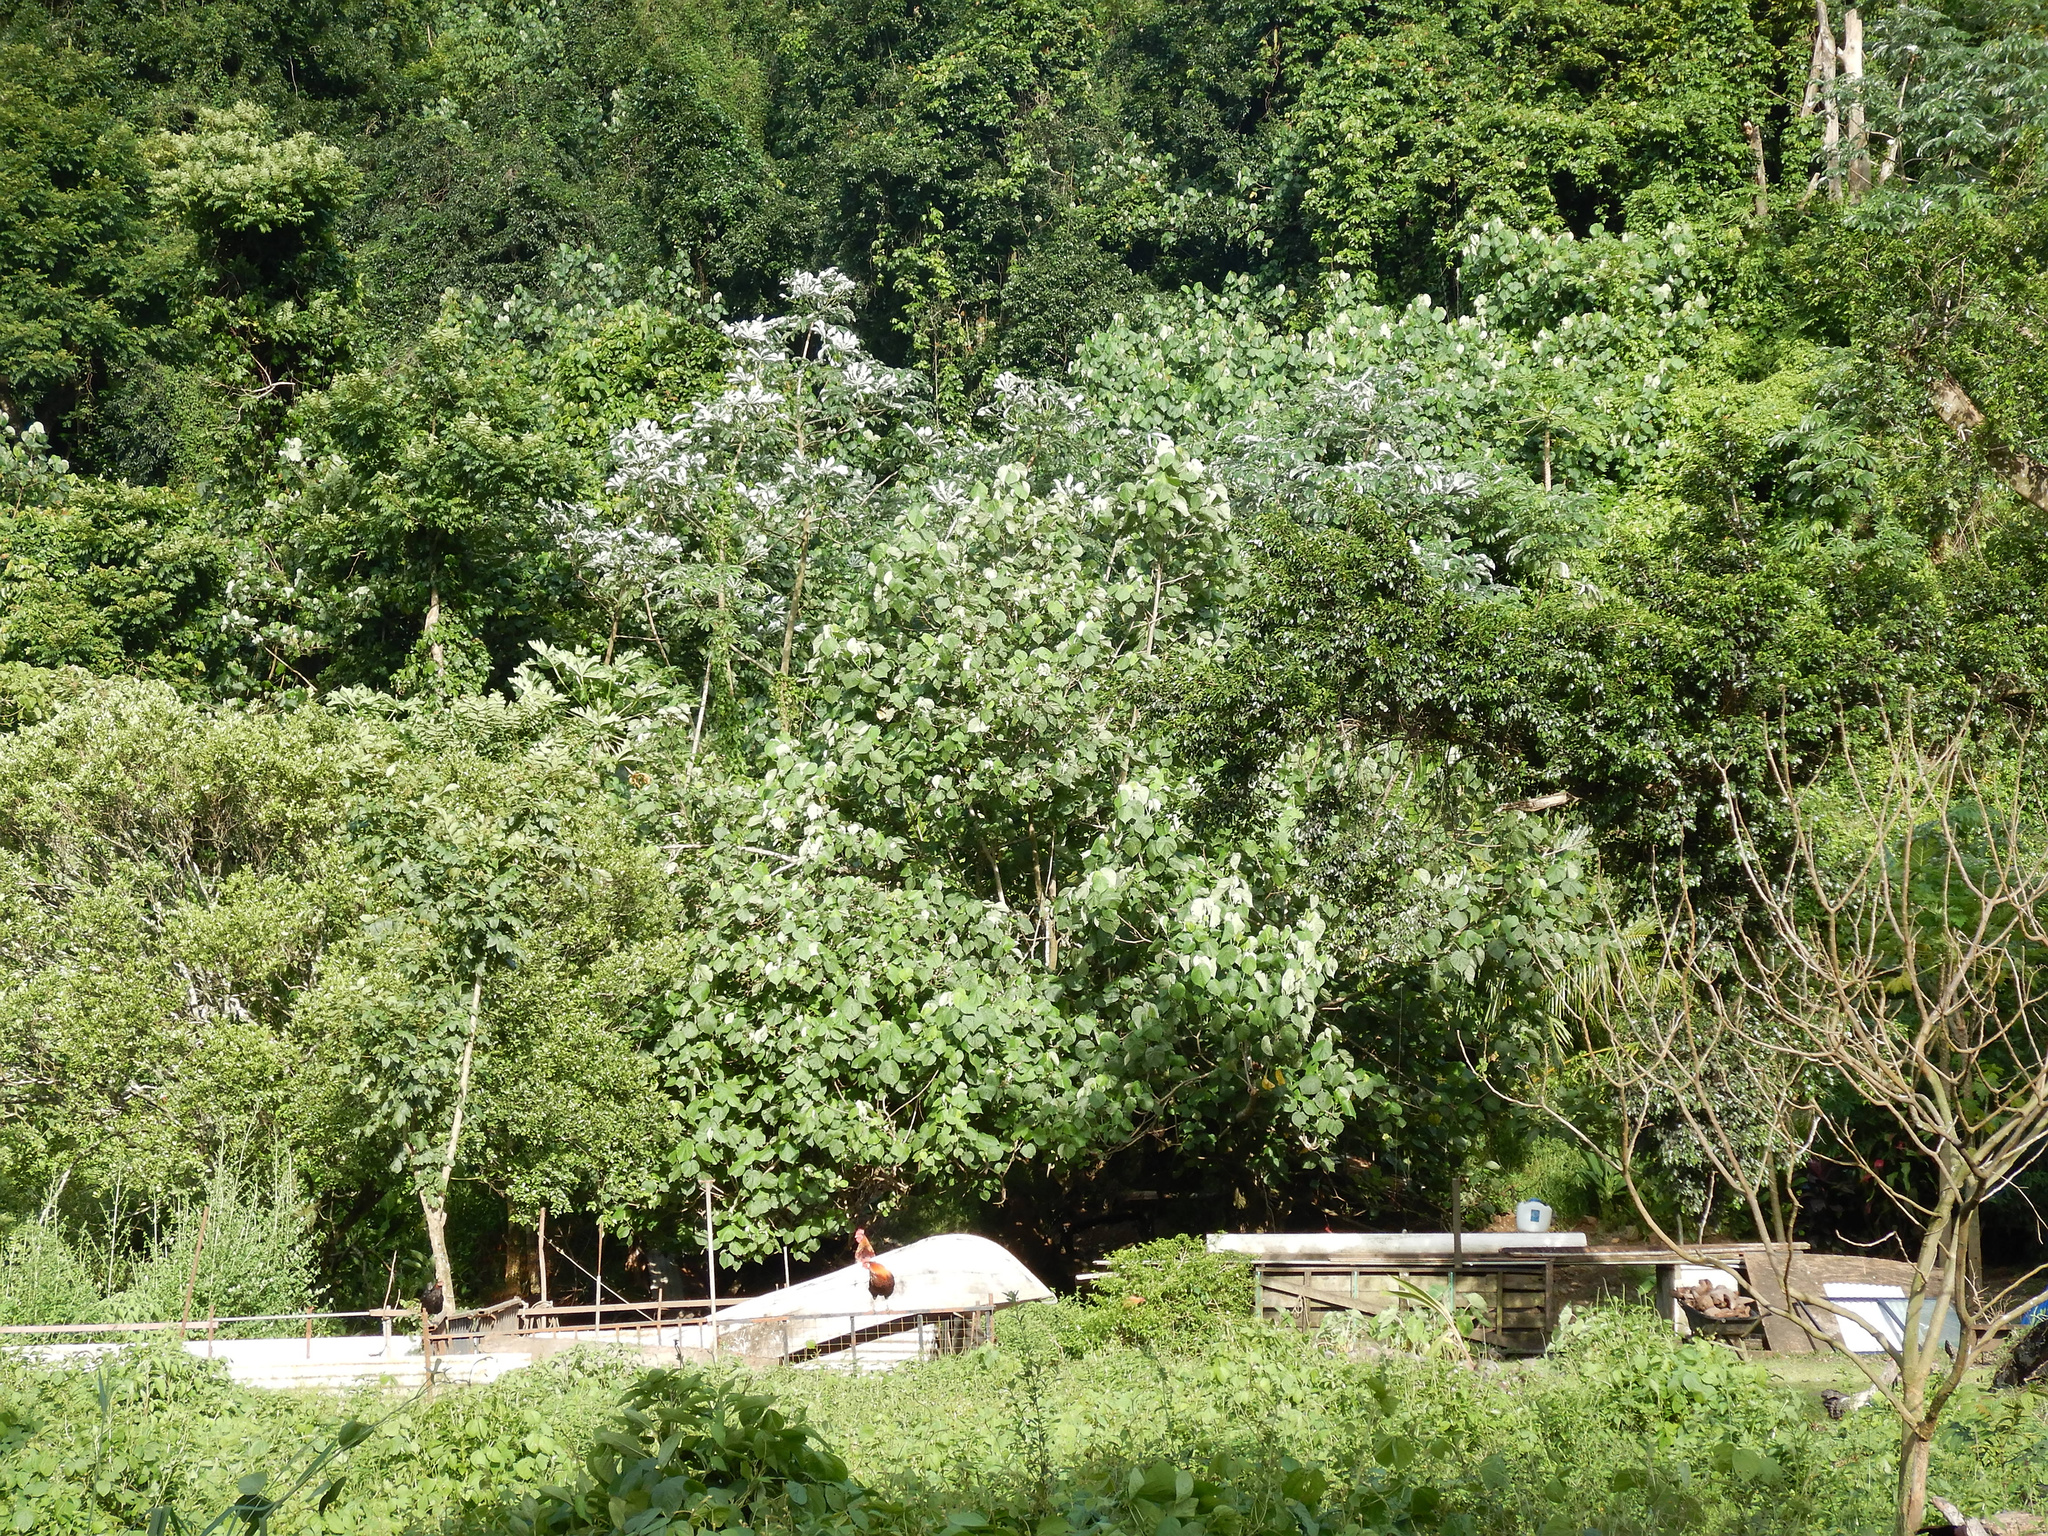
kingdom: Plantae
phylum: Tracheophyta
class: Magnoliopsida
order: Rosales
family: Urticaceae
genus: Cecropia
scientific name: Cecropia pachystachya
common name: Ambay pumpwood
